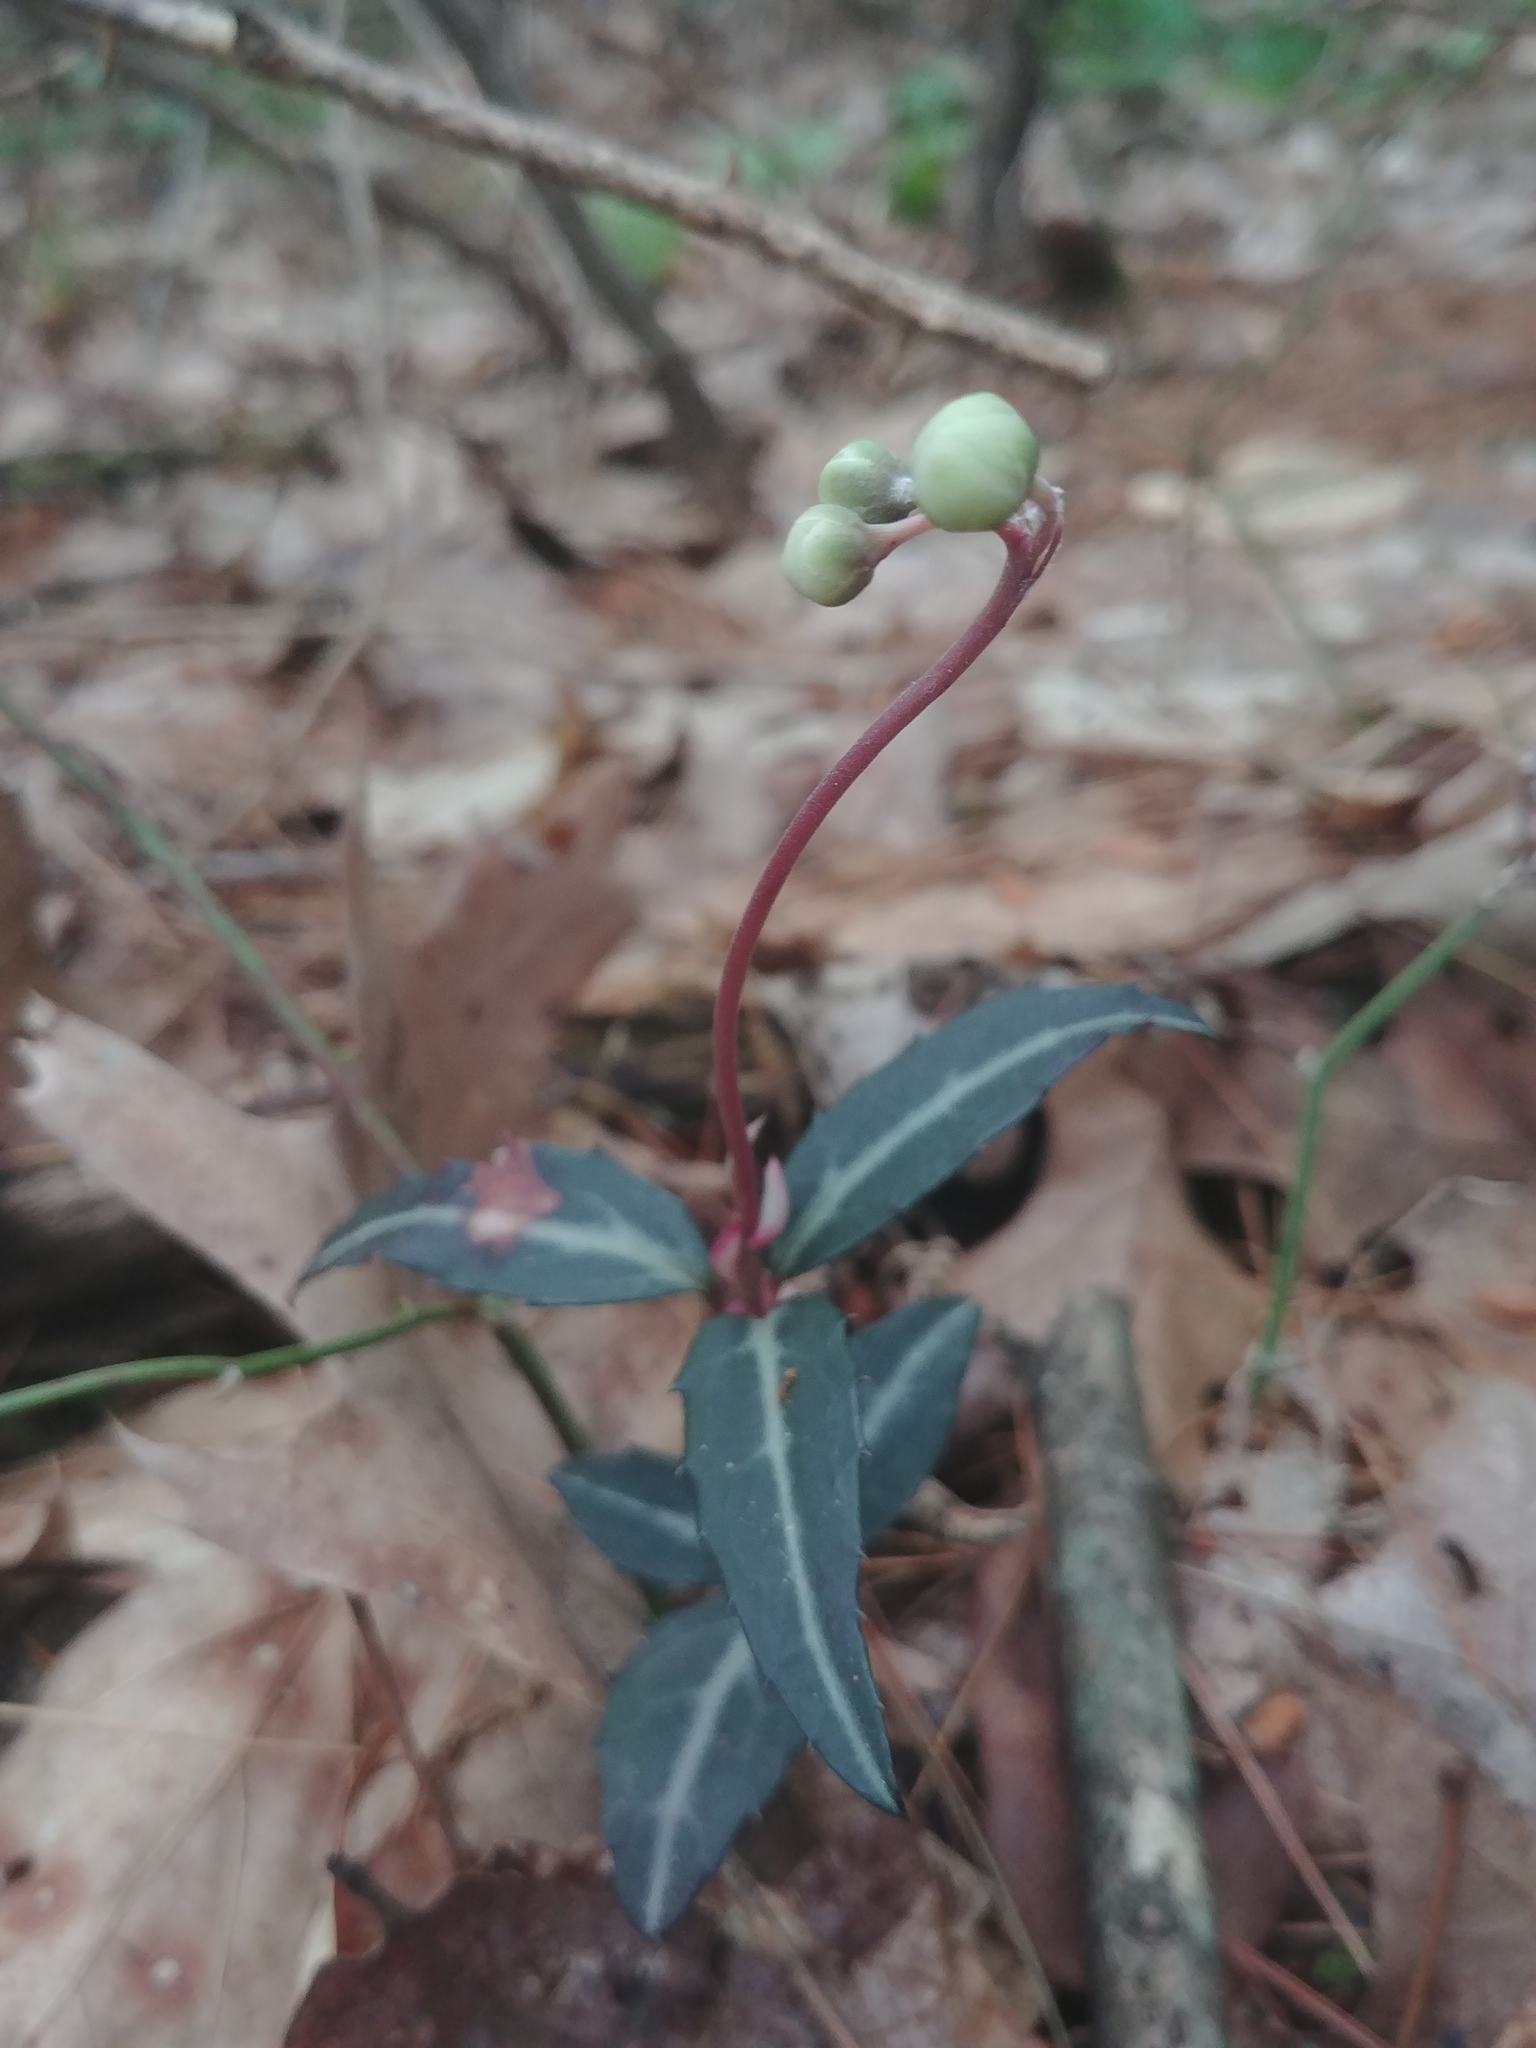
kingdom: Plantae
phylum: Tracheophyta
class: Magnoliopsida
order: Ericales
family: Ericaceae
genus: Chimaphila
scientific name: Chimaphila maculata
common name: Spotted pipsissewa
